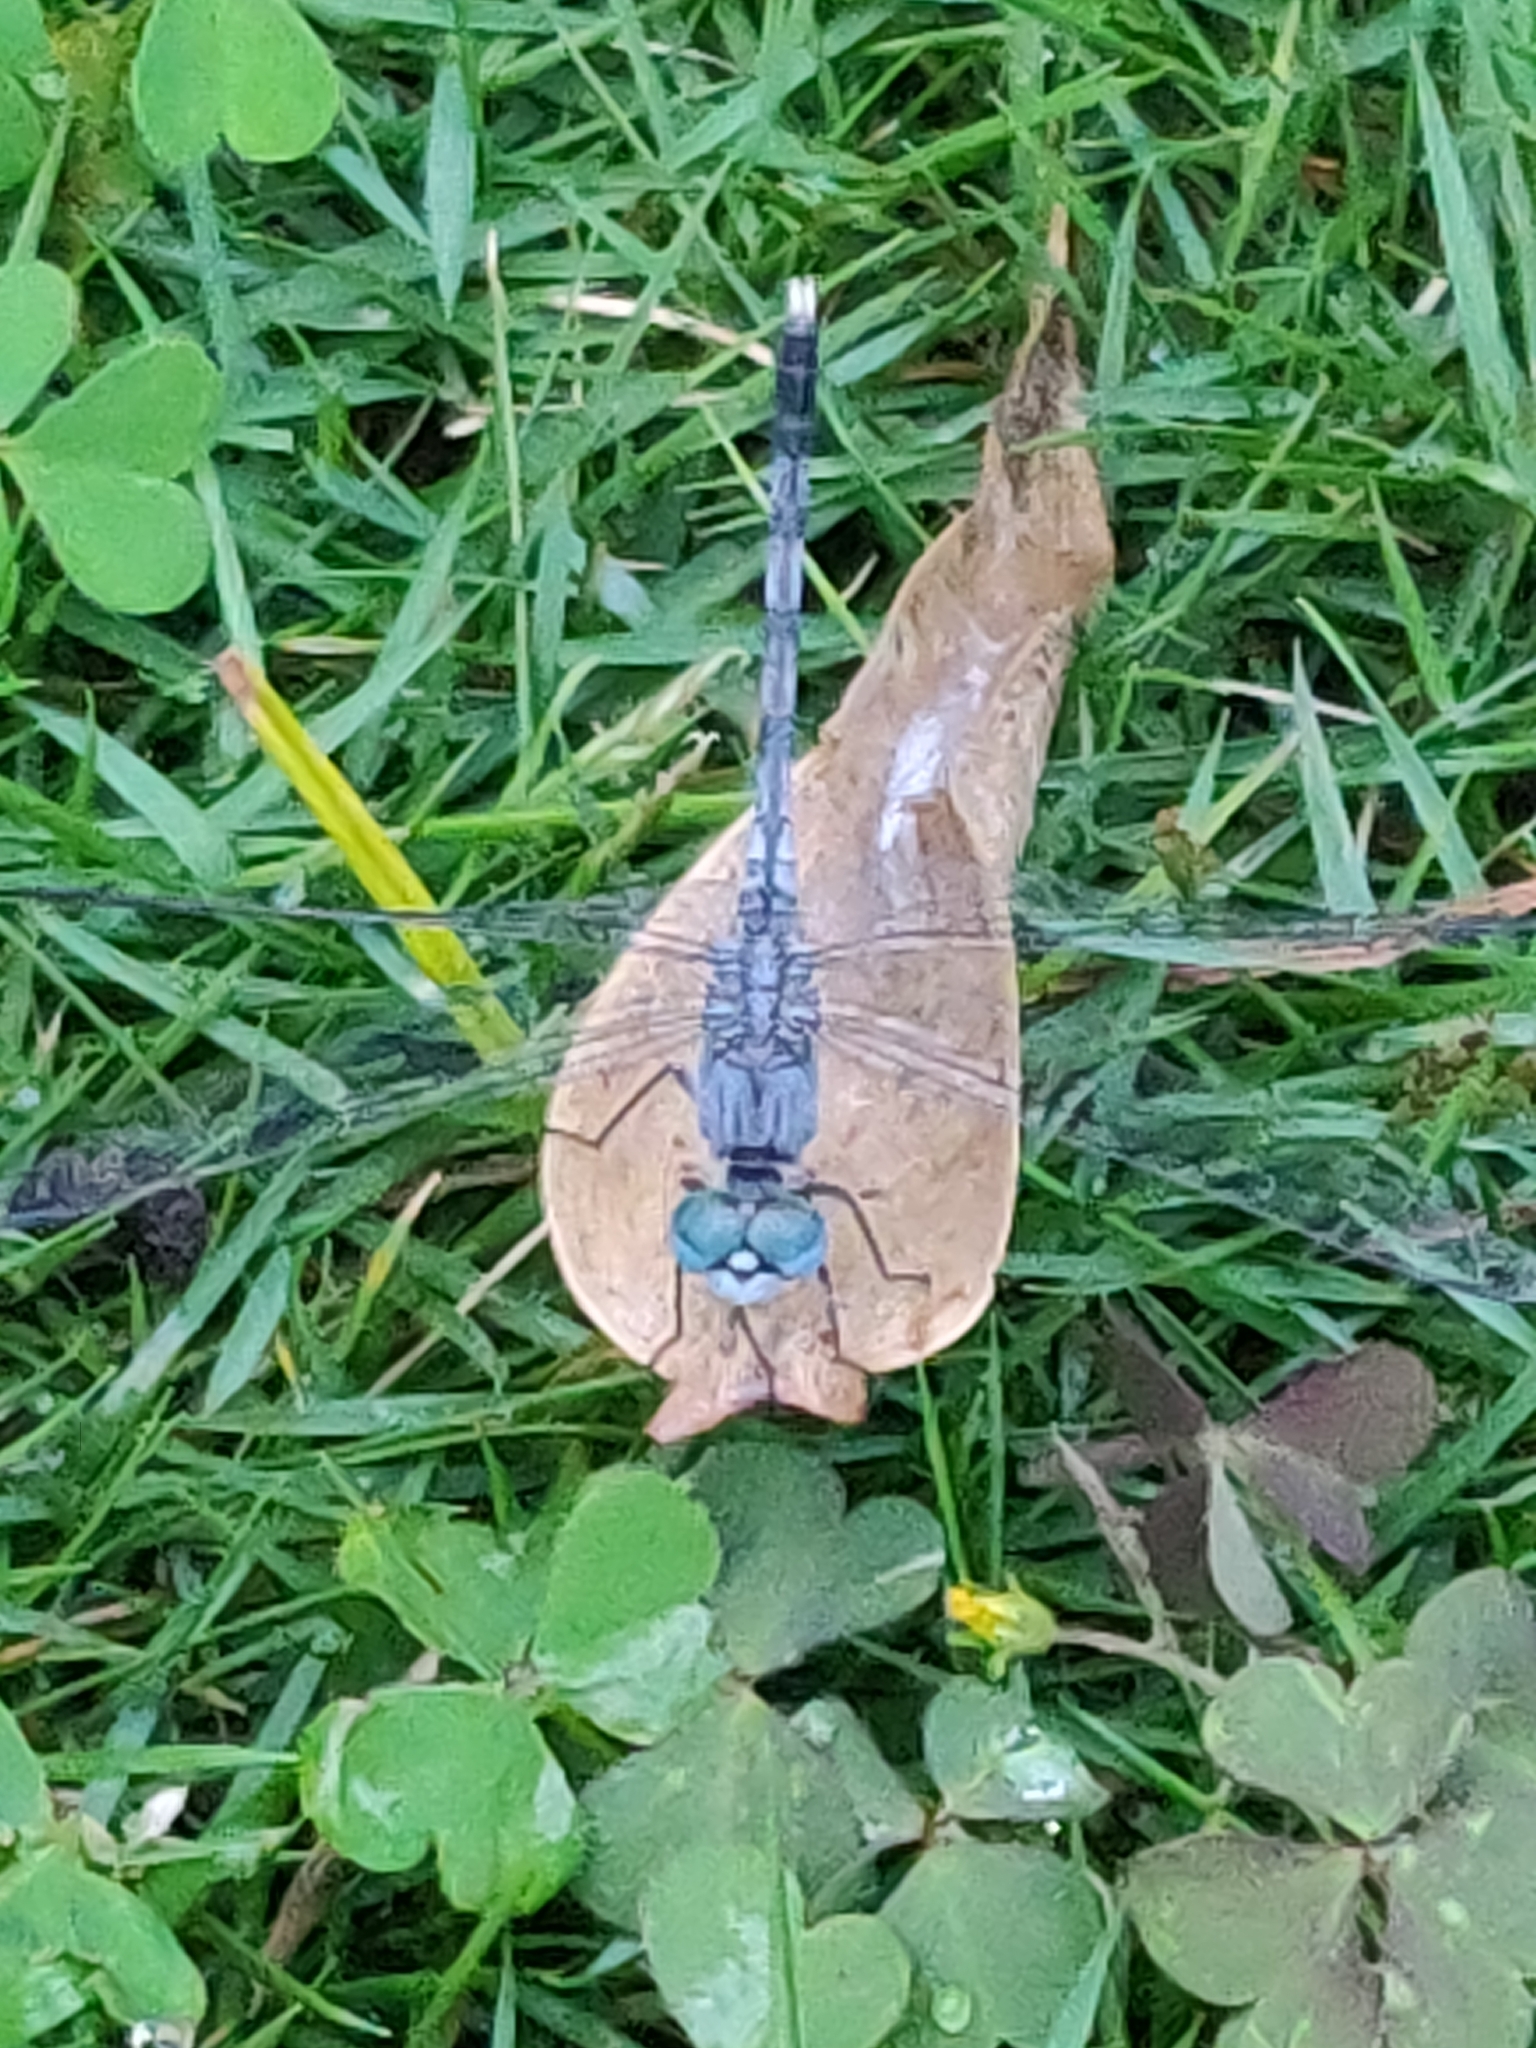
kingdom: Animalia
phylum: Arthropoda
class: Insecta
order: Odonata
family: Libellulidae
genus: Diplacodes
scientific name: Diplacodes trivialis
